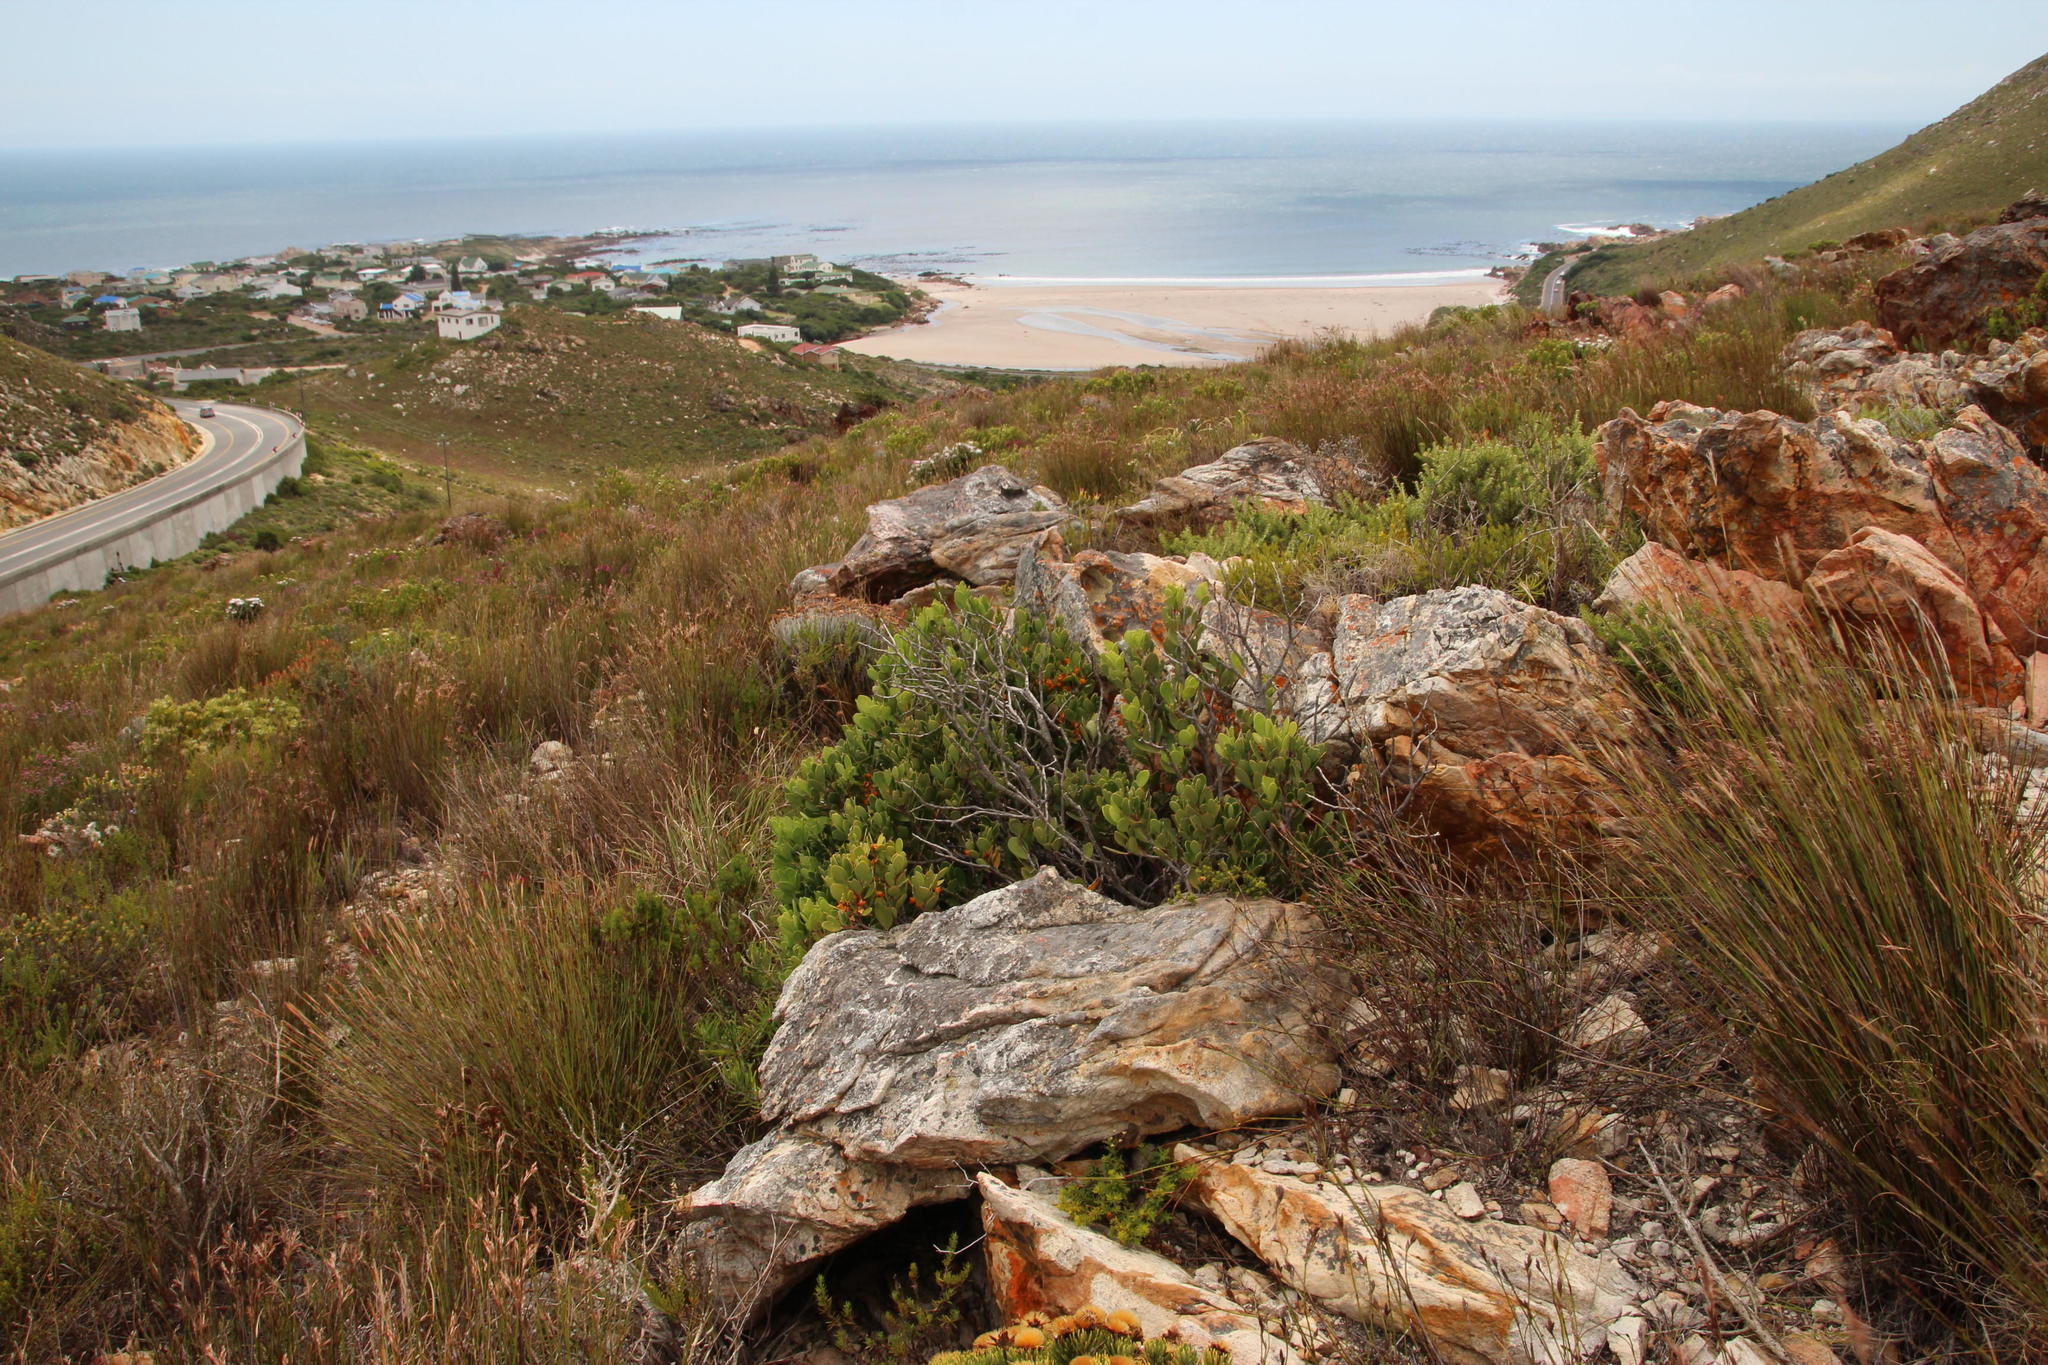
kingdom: Plantae
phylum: Tracheophyta
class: Magnoliopsida
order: Celastrales
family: Celastraceae
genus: Pterocelastrus
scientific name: Pterocelastrus tricuspidatus
